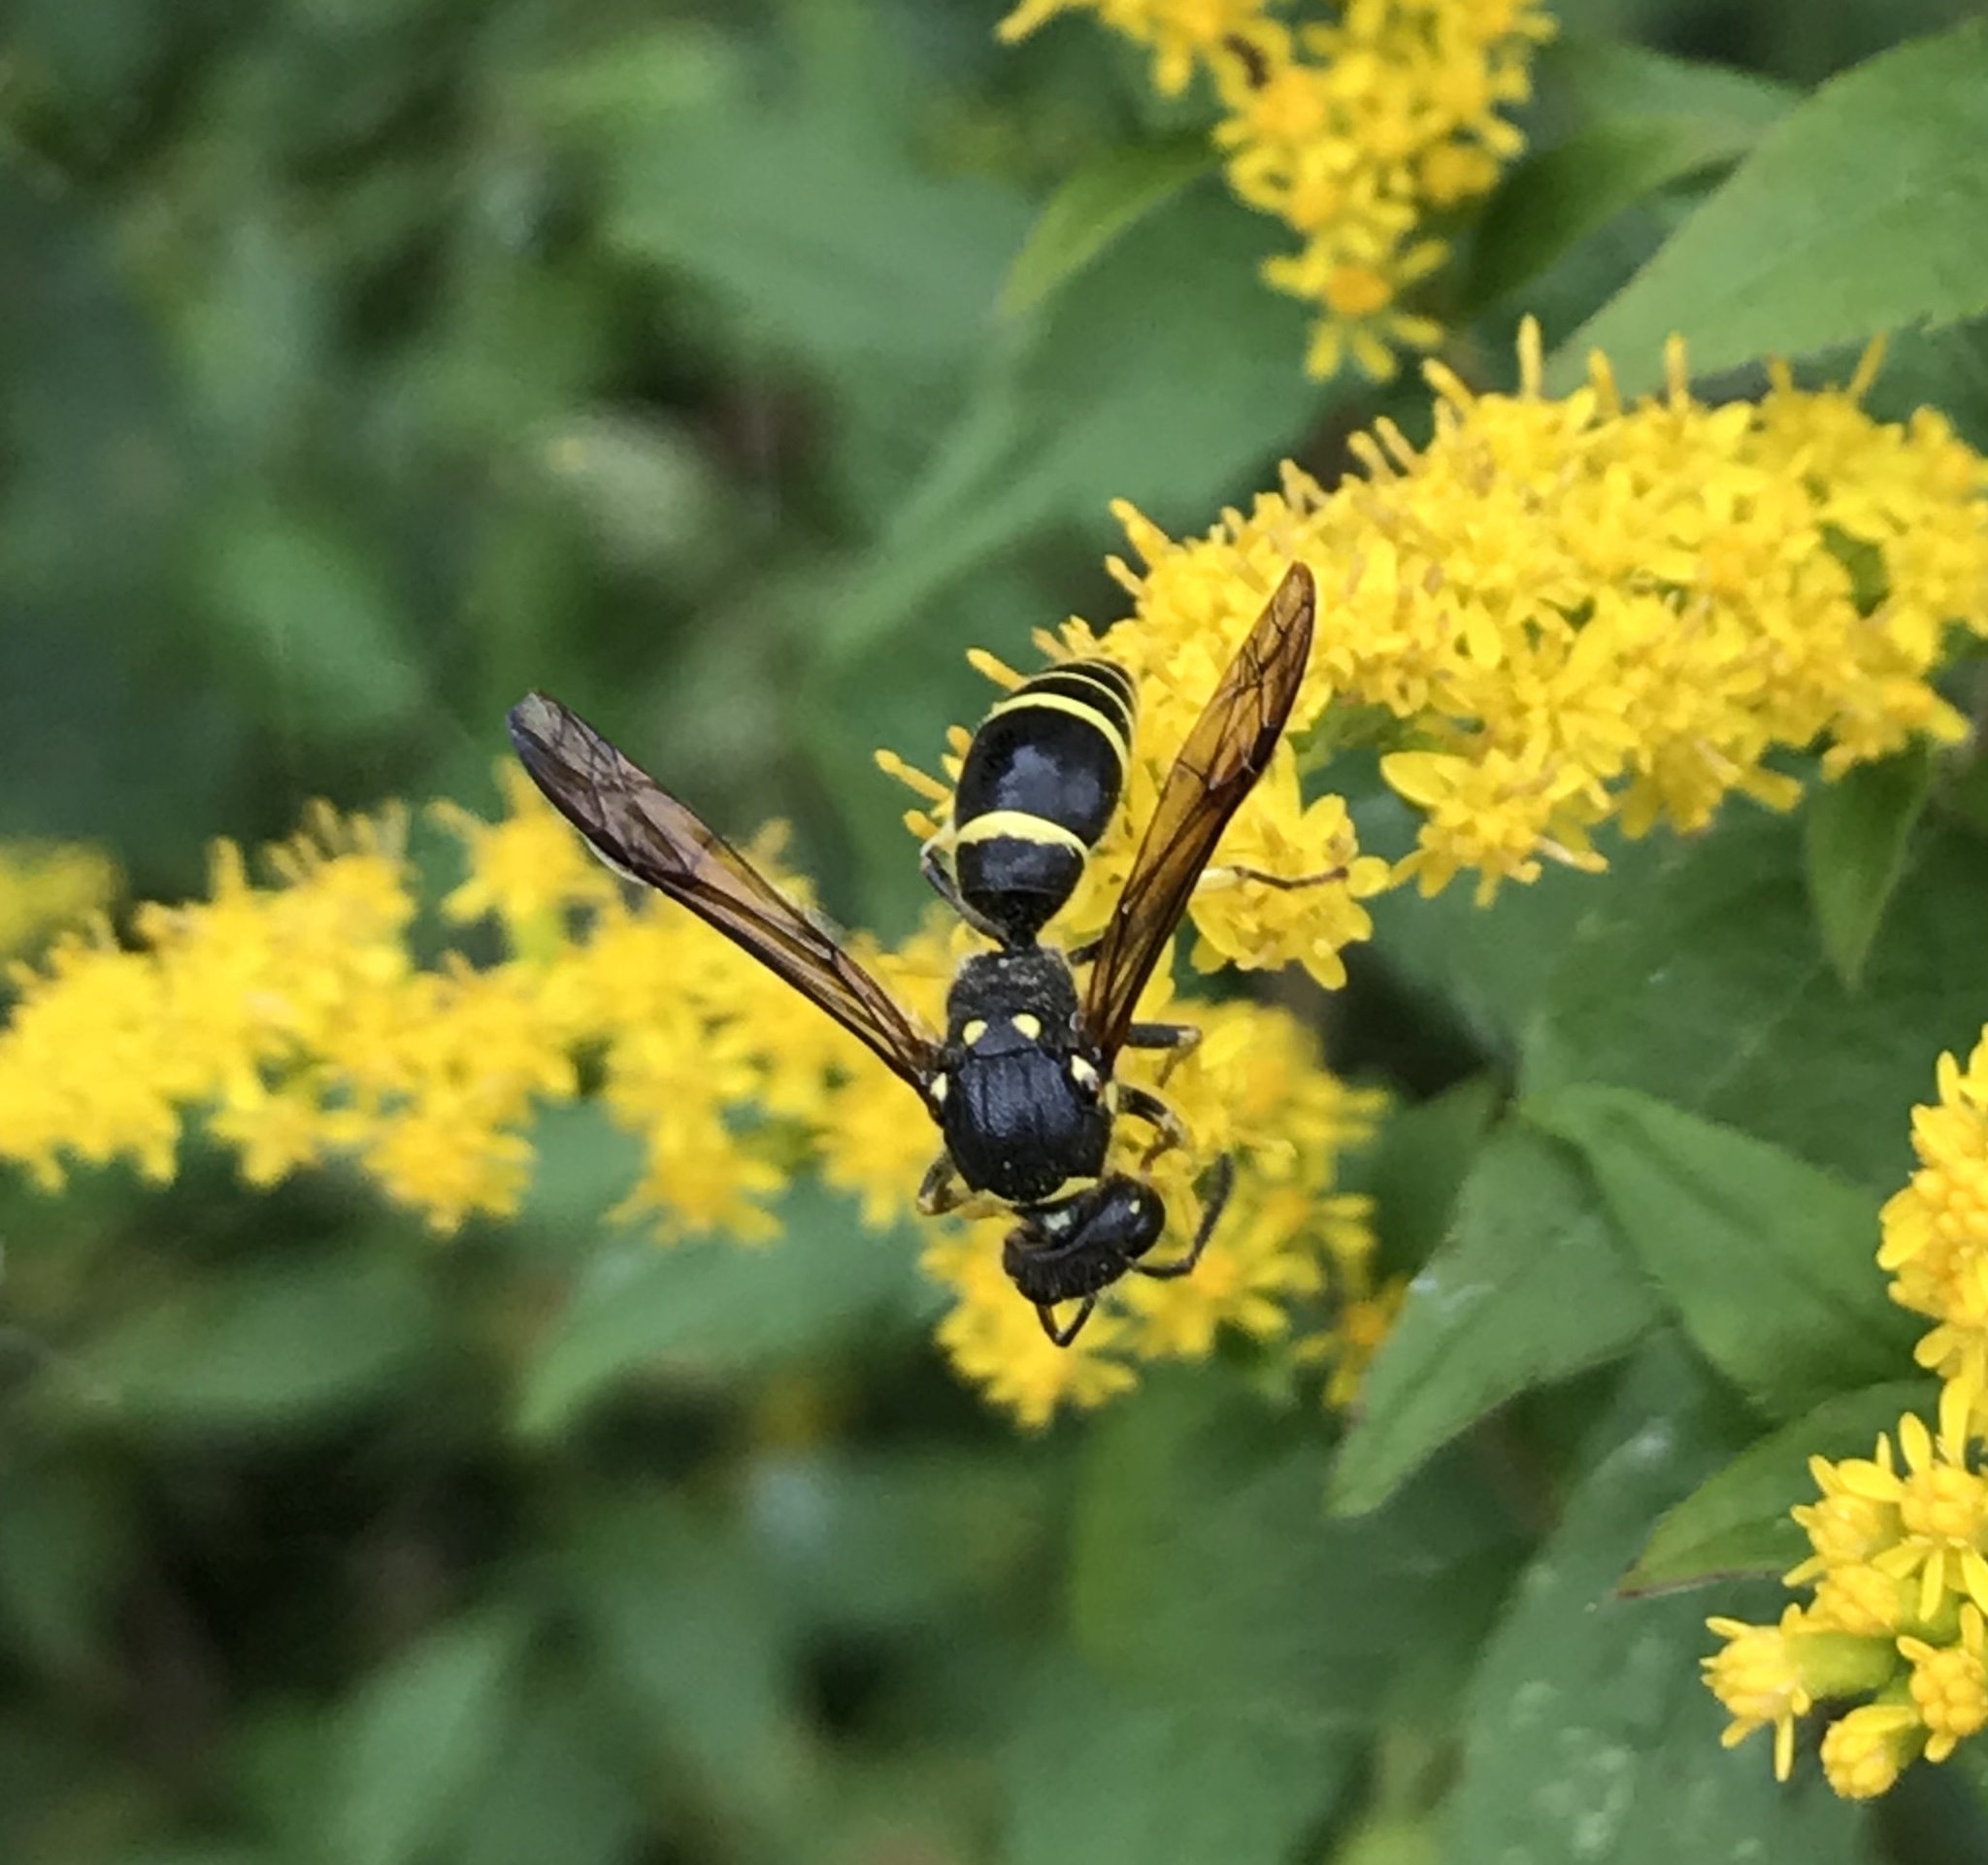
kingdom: Animalia
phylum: Arthropoda
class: Insecta
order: Hymenoptera
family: Vespidae
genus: Ancistrocerus
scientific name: Ancistrocerus
